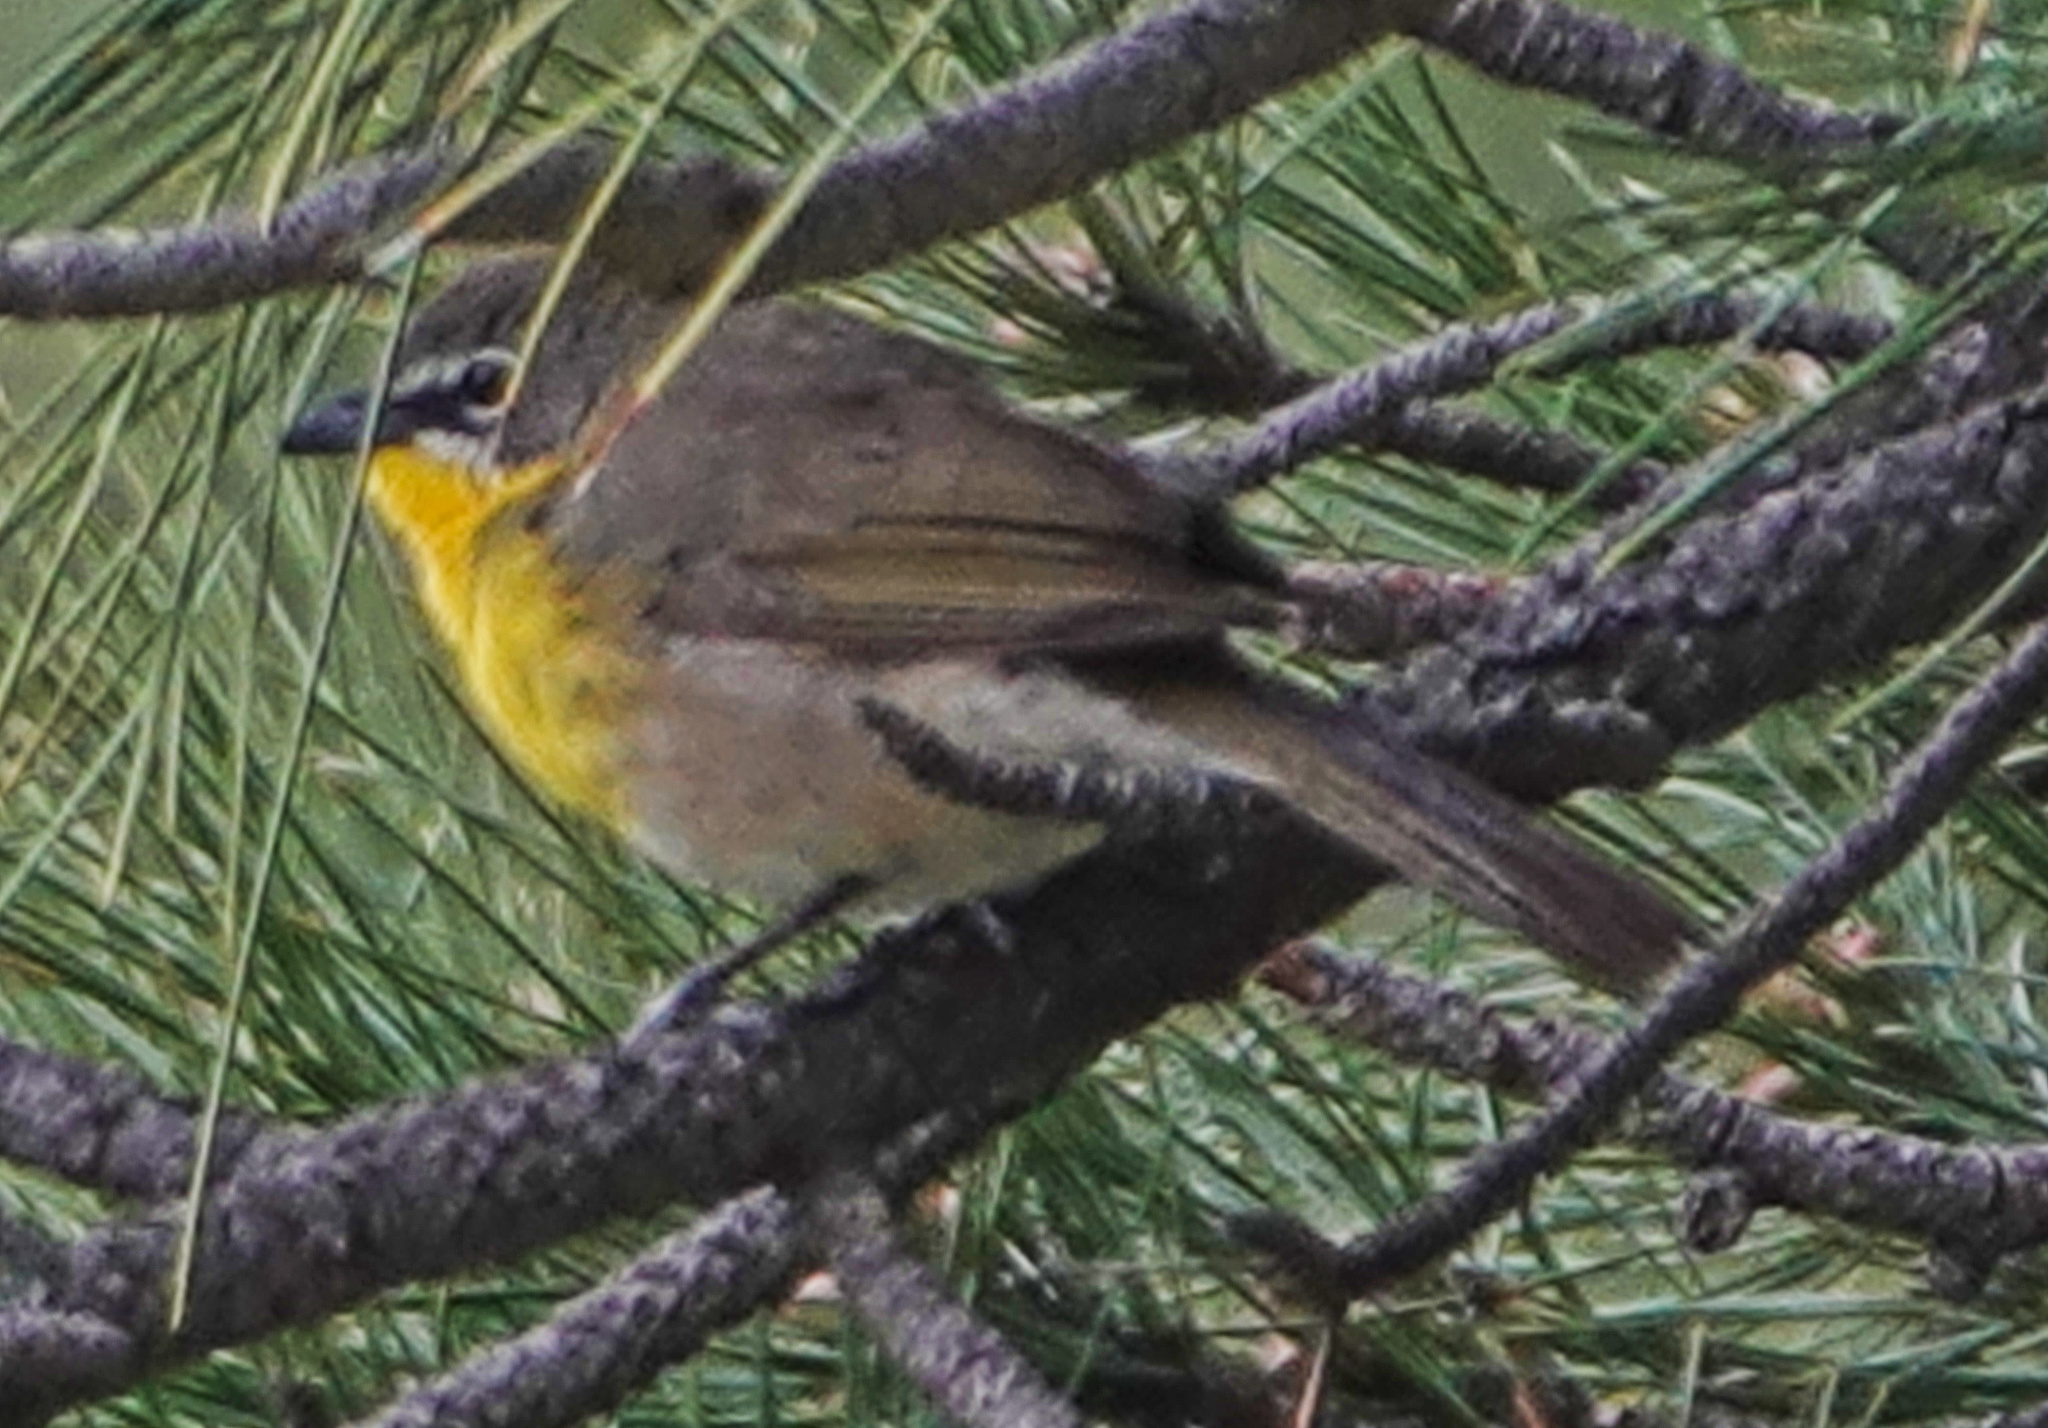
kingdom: Animalia
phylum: Chordata
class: Aves
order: Passeriformes
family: Parulidae
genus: Icteria
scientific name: Icteria virens
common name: Yellow-breasted chat
